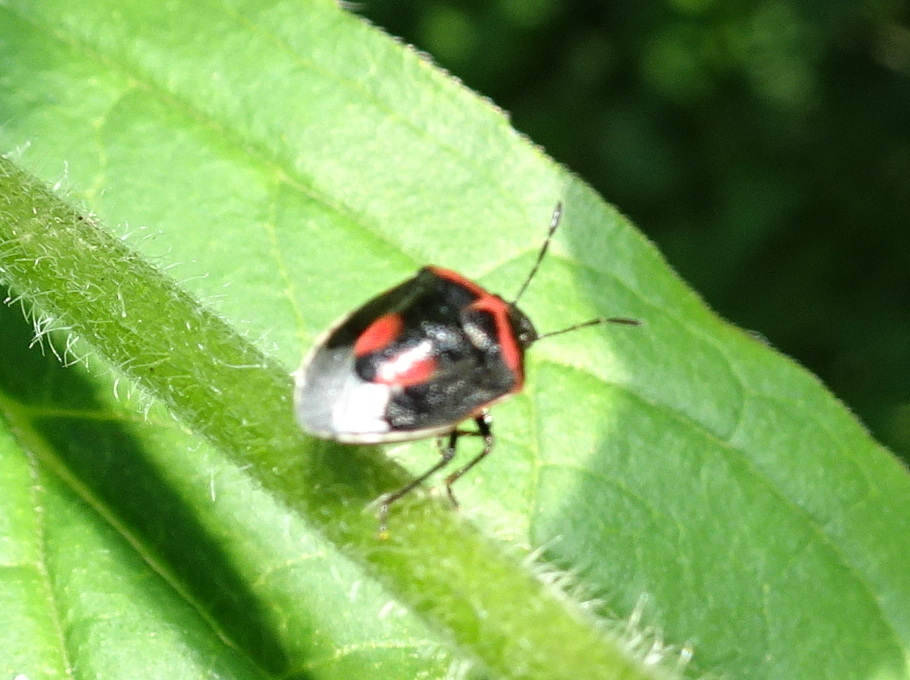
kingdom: Animalia
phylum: Arthropoda
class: Insecta
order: Hemiptera
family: Pentatomidae
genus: Cosmopepla
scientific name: Cosmopepla lintneriana
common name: Twice-stabbed stink bug
